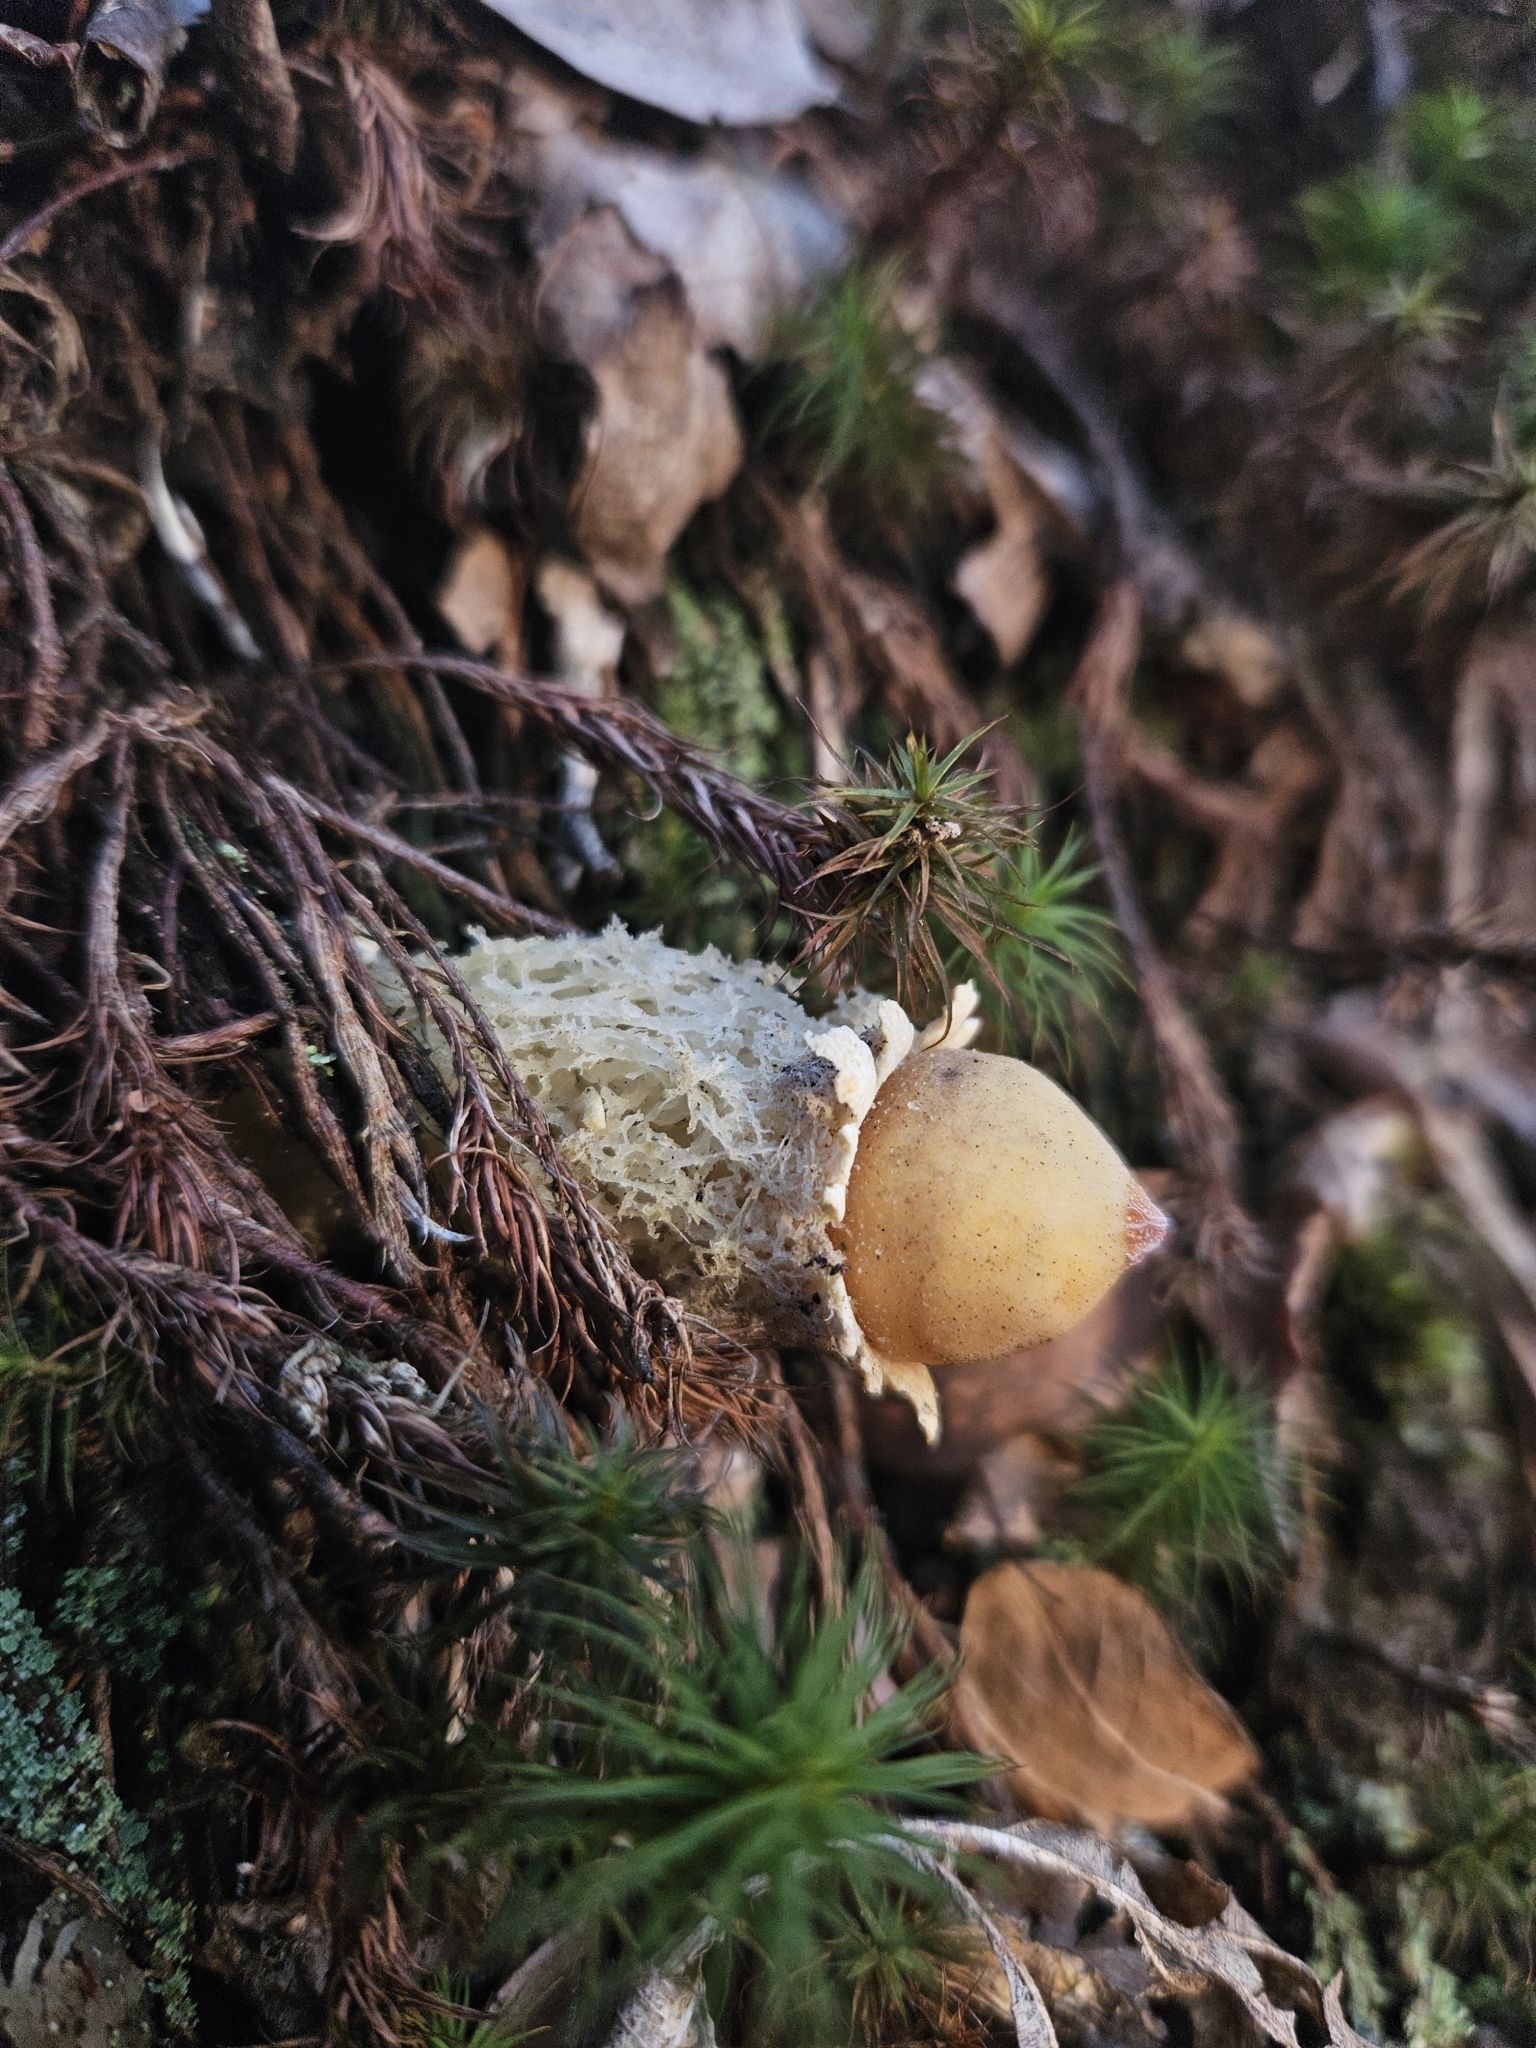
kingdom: Fungi
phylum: Basidiomycota
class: Agaricomycetes
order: Boletales
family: Calostomataceae
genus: Calostoma
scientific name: Calostoma lutescens
